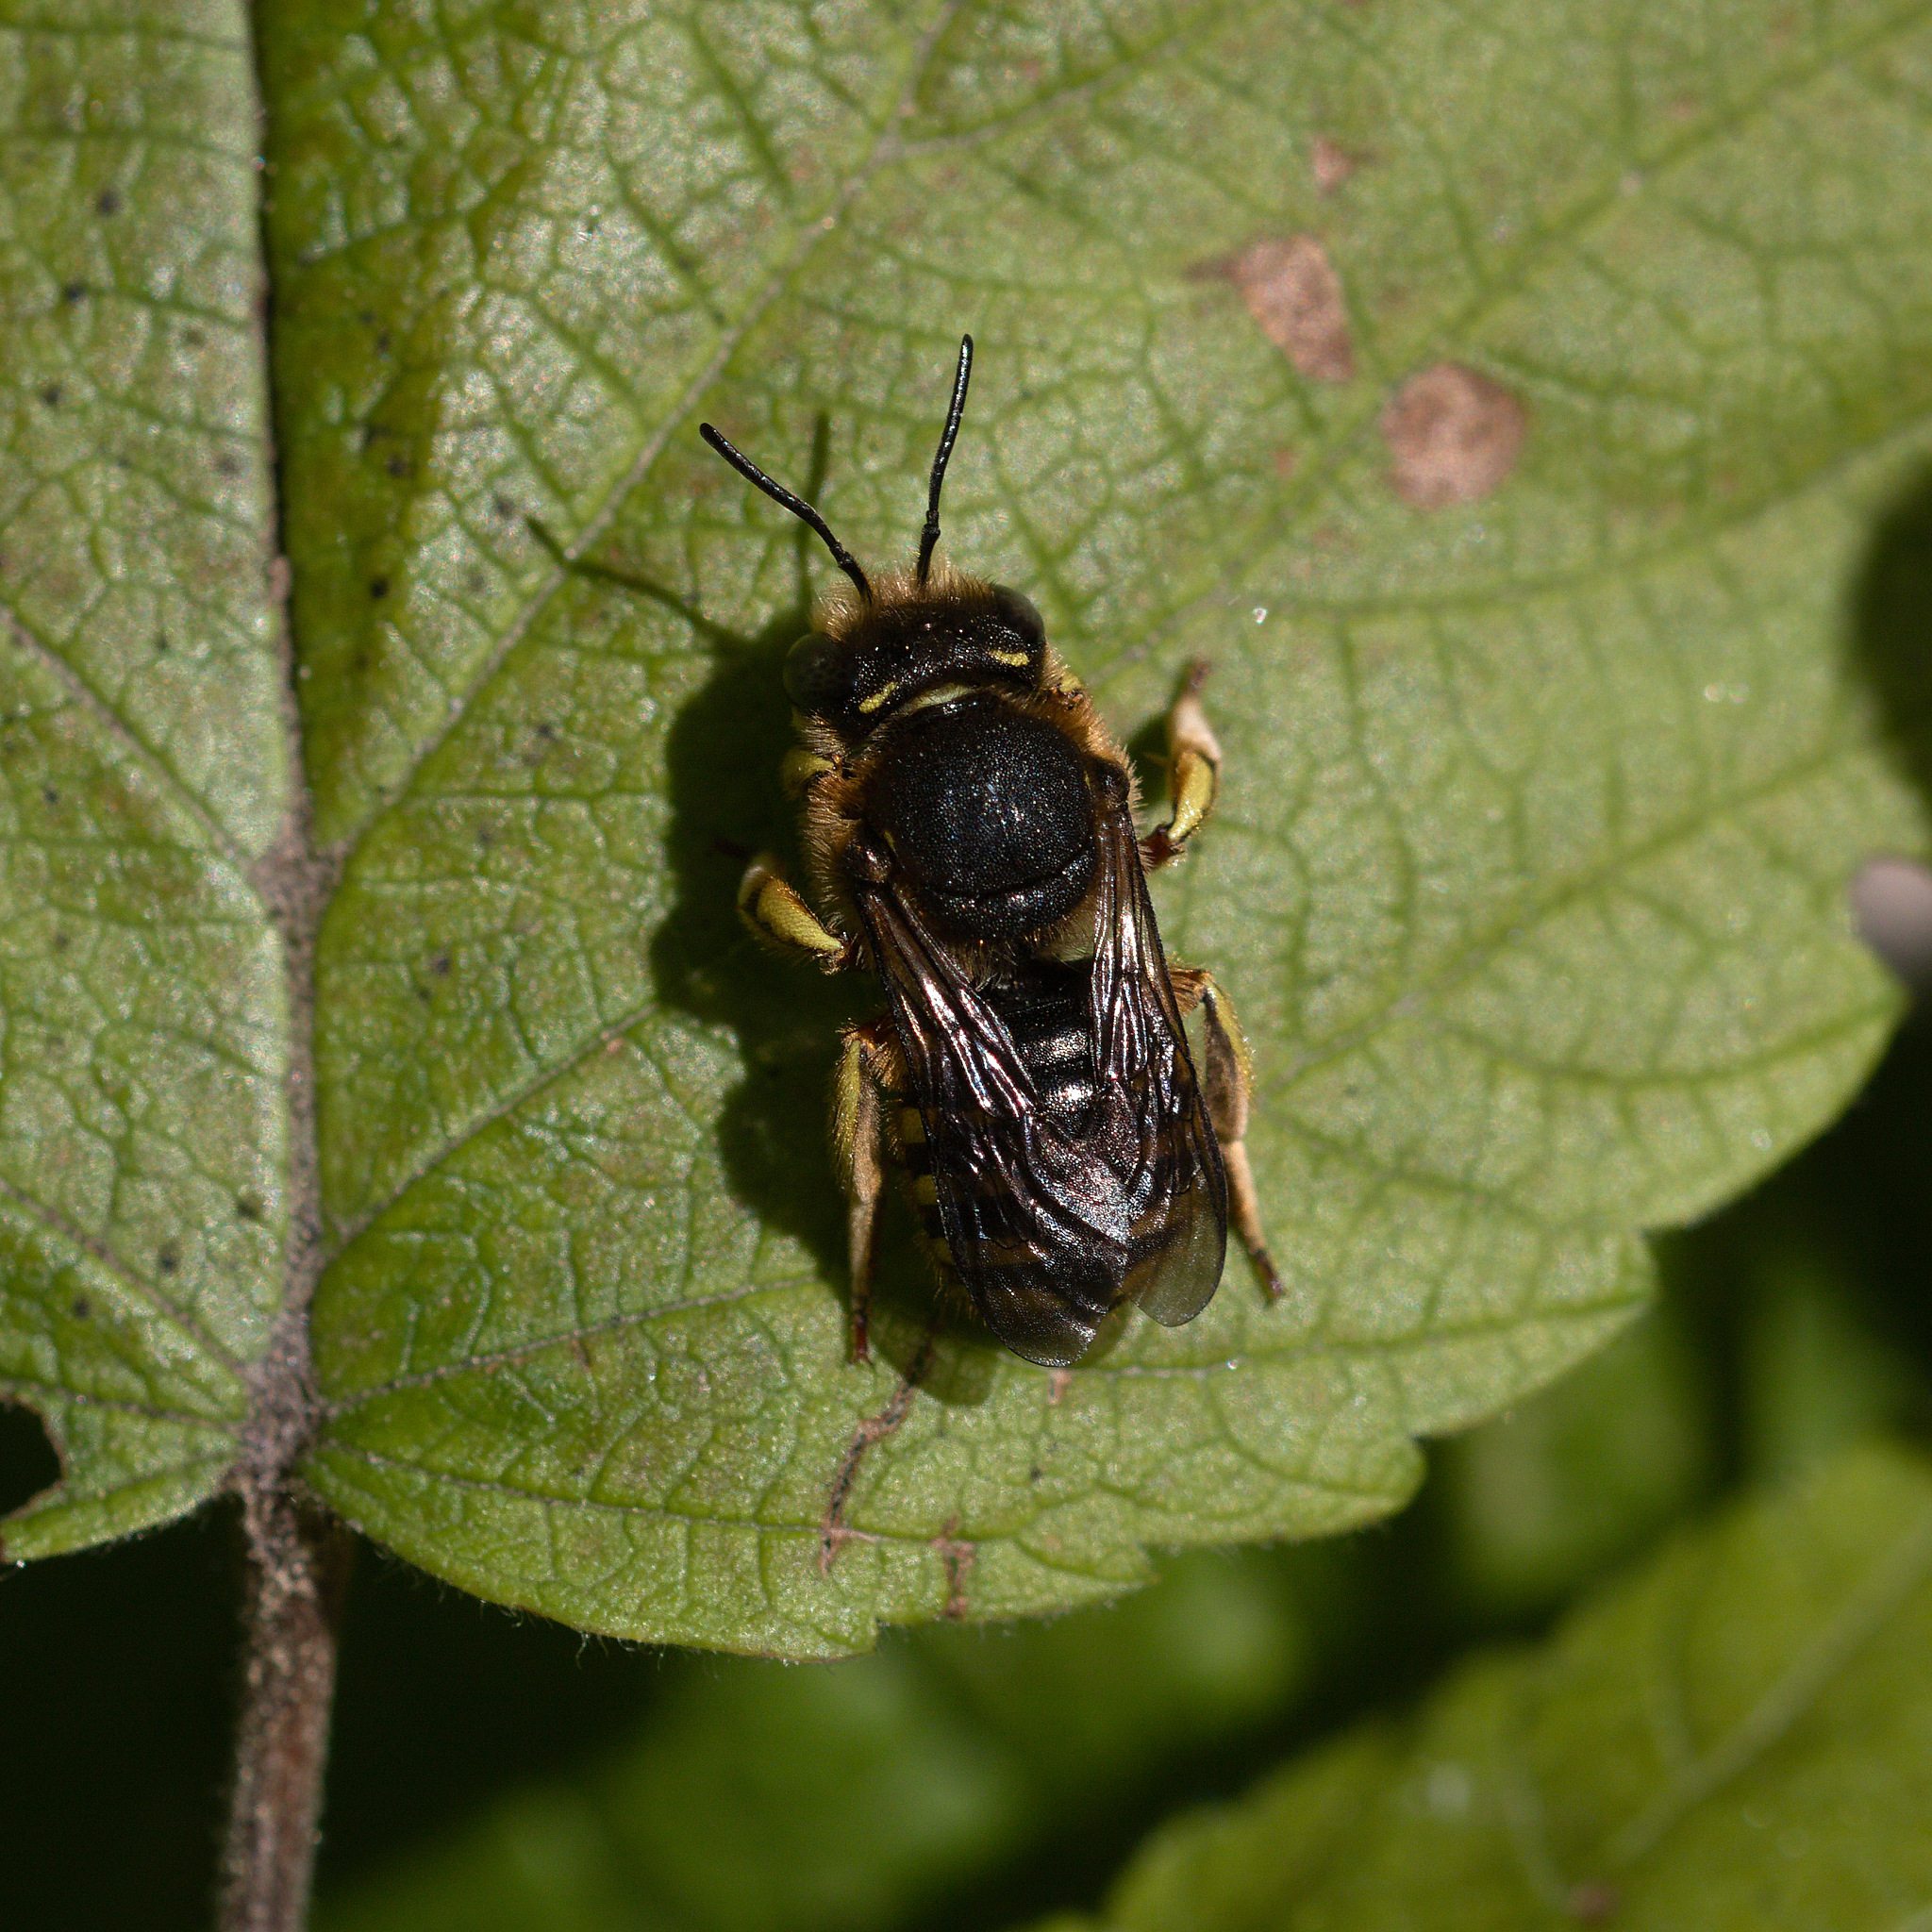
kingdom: Animalia
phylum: Arthropoda
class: Insecta
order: Hymenoptera
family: Megachilidae
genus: Anthidium
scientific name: Anthidium manicatum
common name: Wool carder bee
